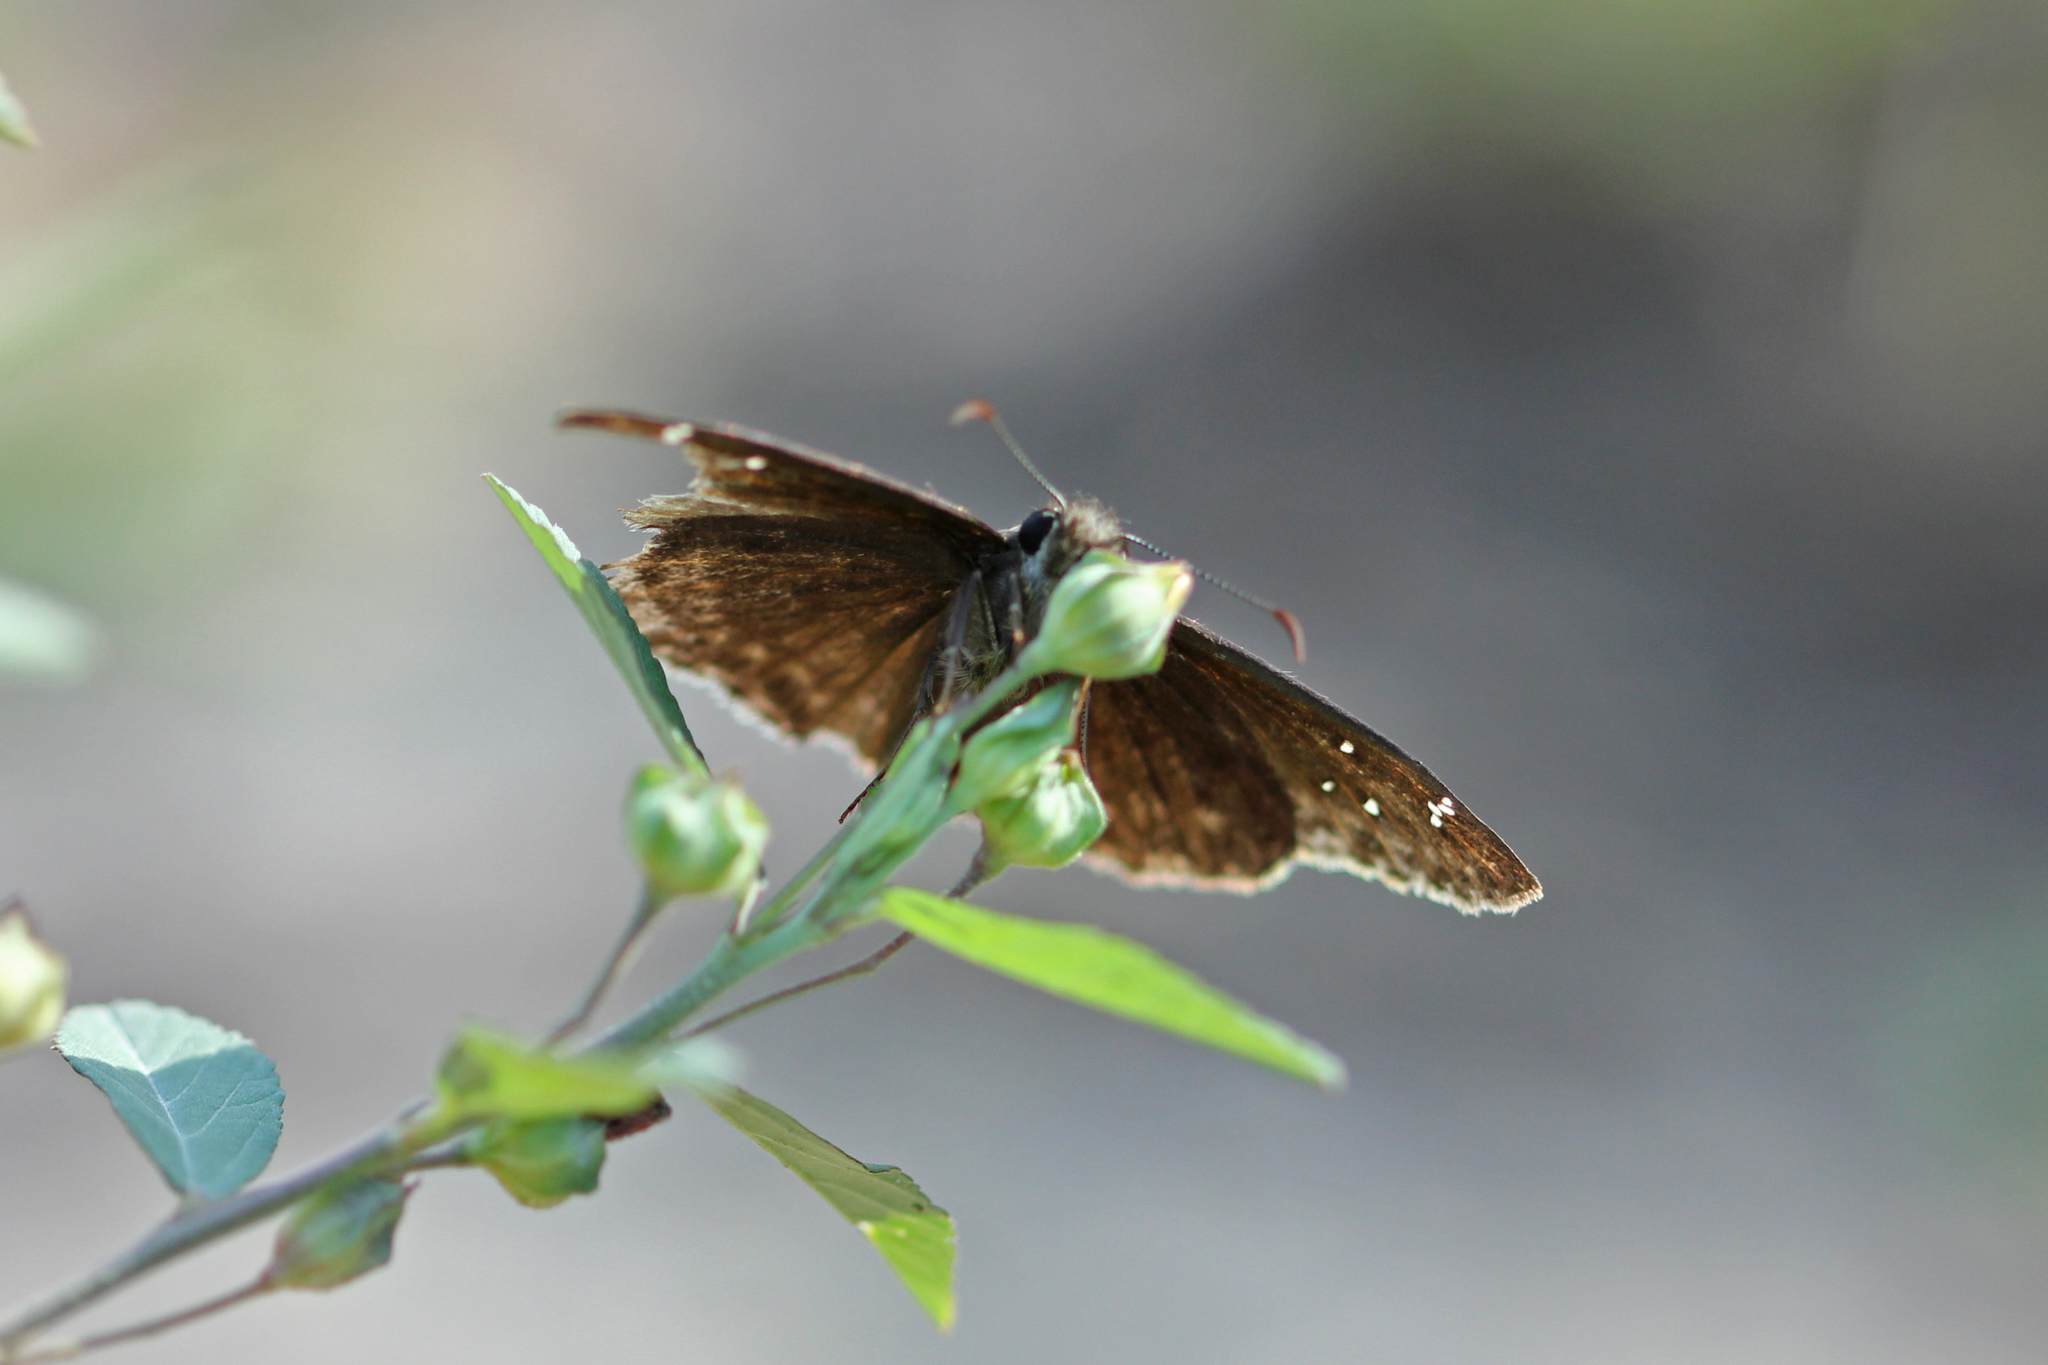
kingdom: Animalia
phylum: Arthropoda
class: Insecta
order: Lepidoptera
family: Hesperiidae
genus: Erynnis
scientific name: Erynnis horatius
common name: Horace's duskywing
